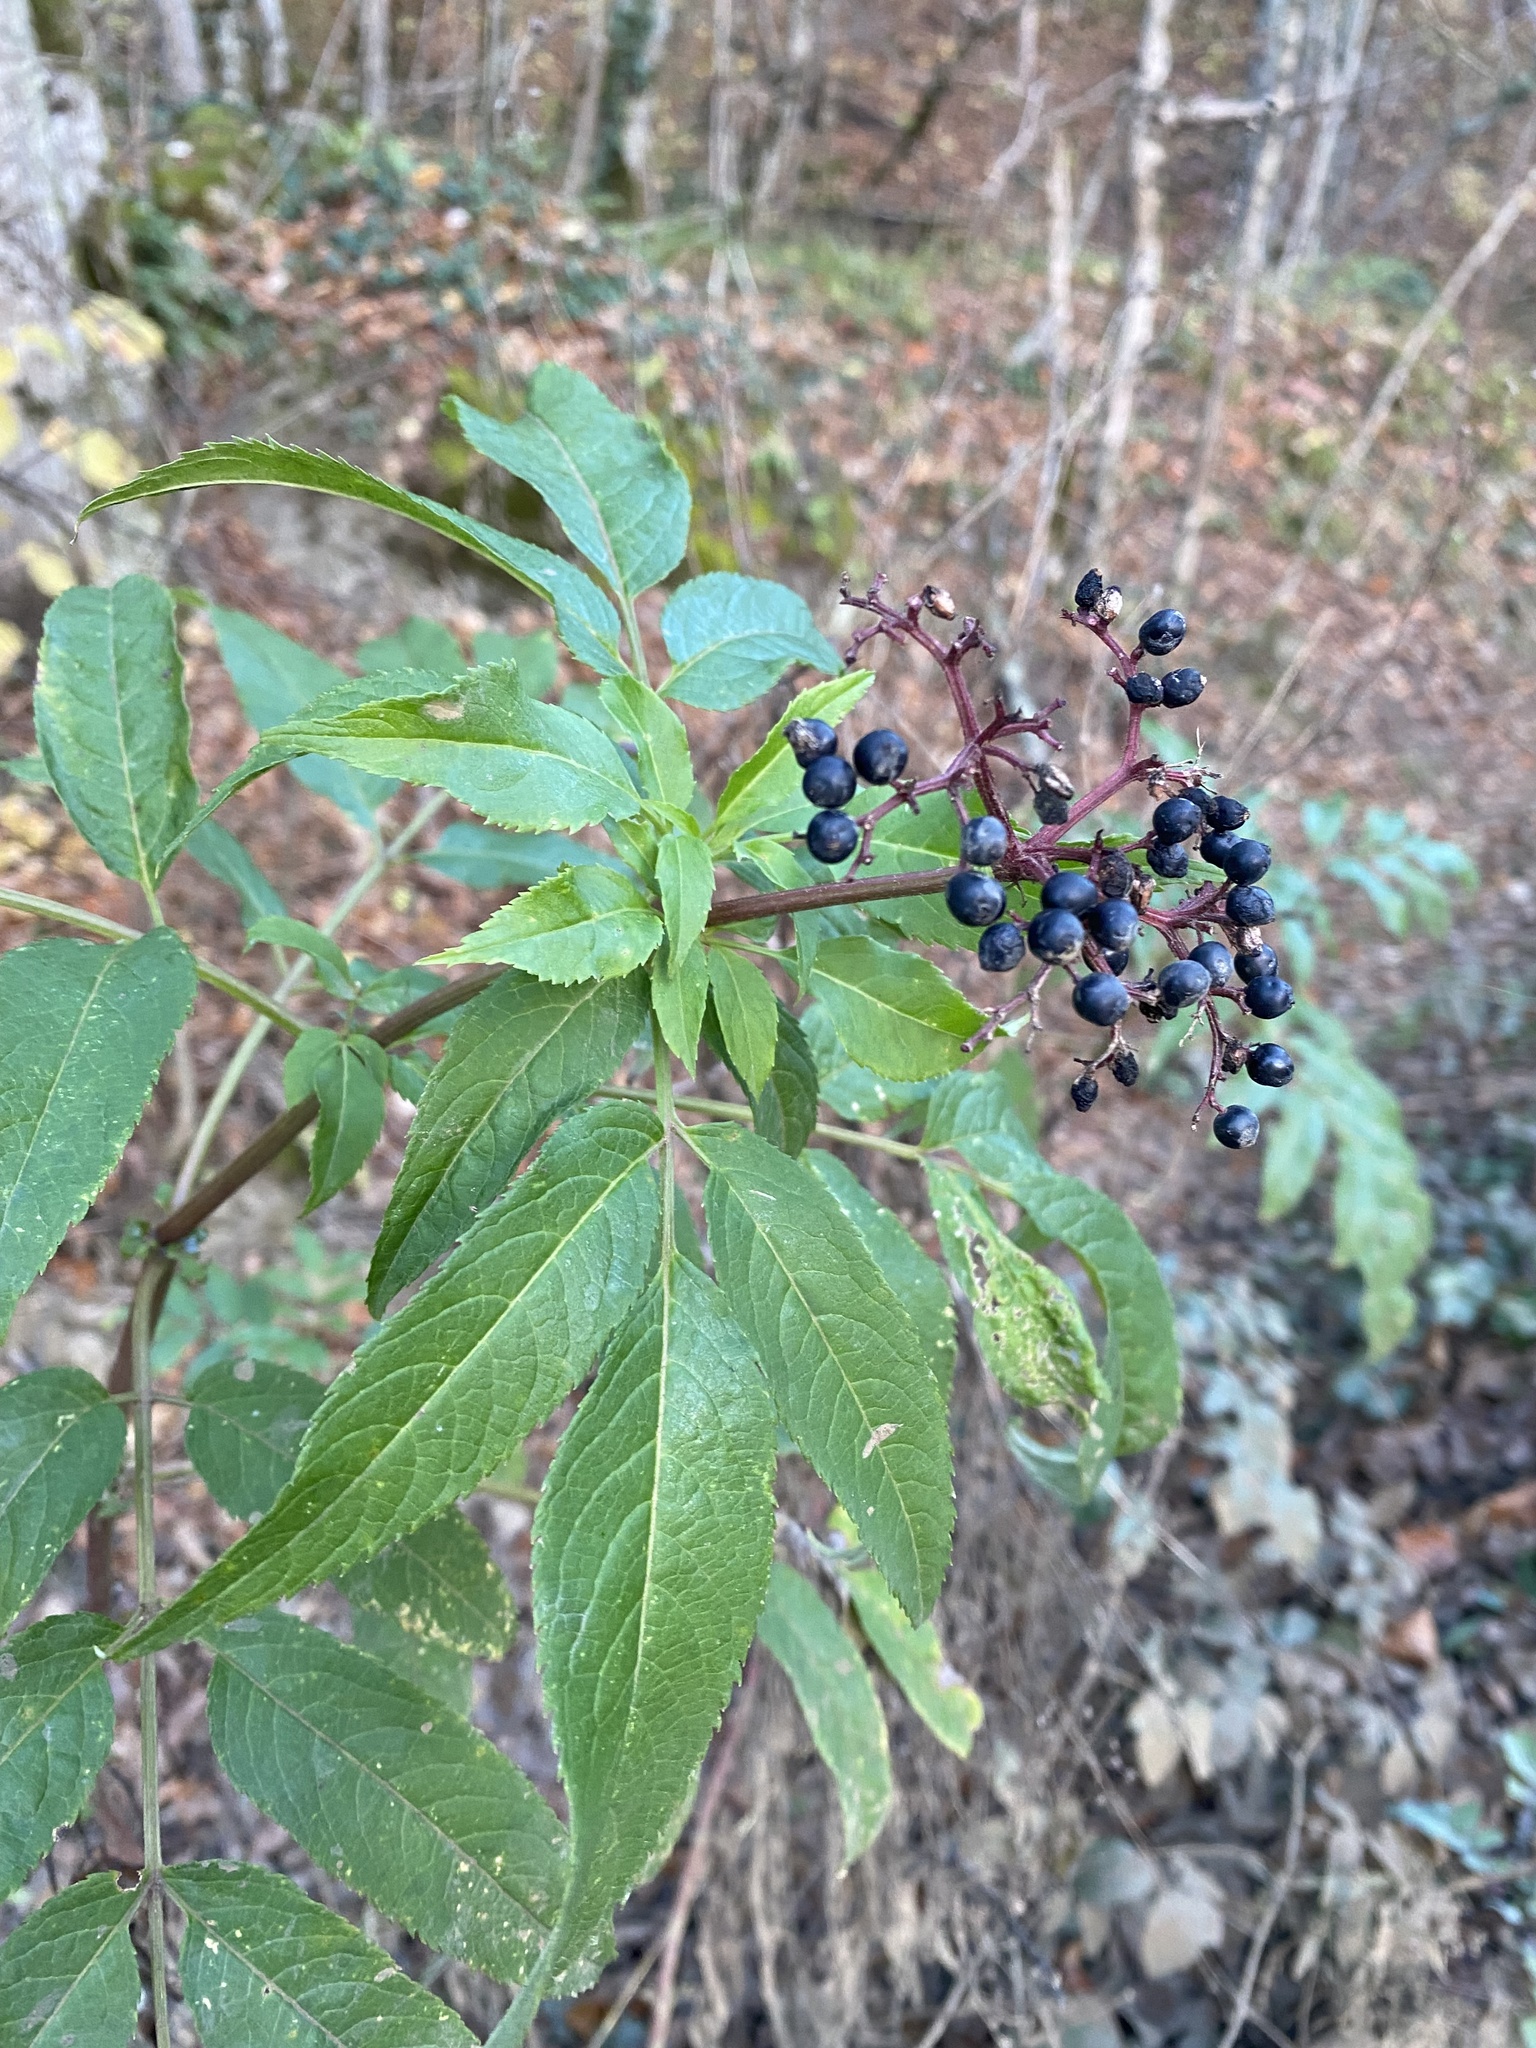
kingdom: Plantae
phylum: Tracheophyta
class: Magnoliopsida
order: Dipsacales
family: Viburnaceae
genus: Sambucus
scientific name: Sambucus ebulus
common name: Dwarf elder
